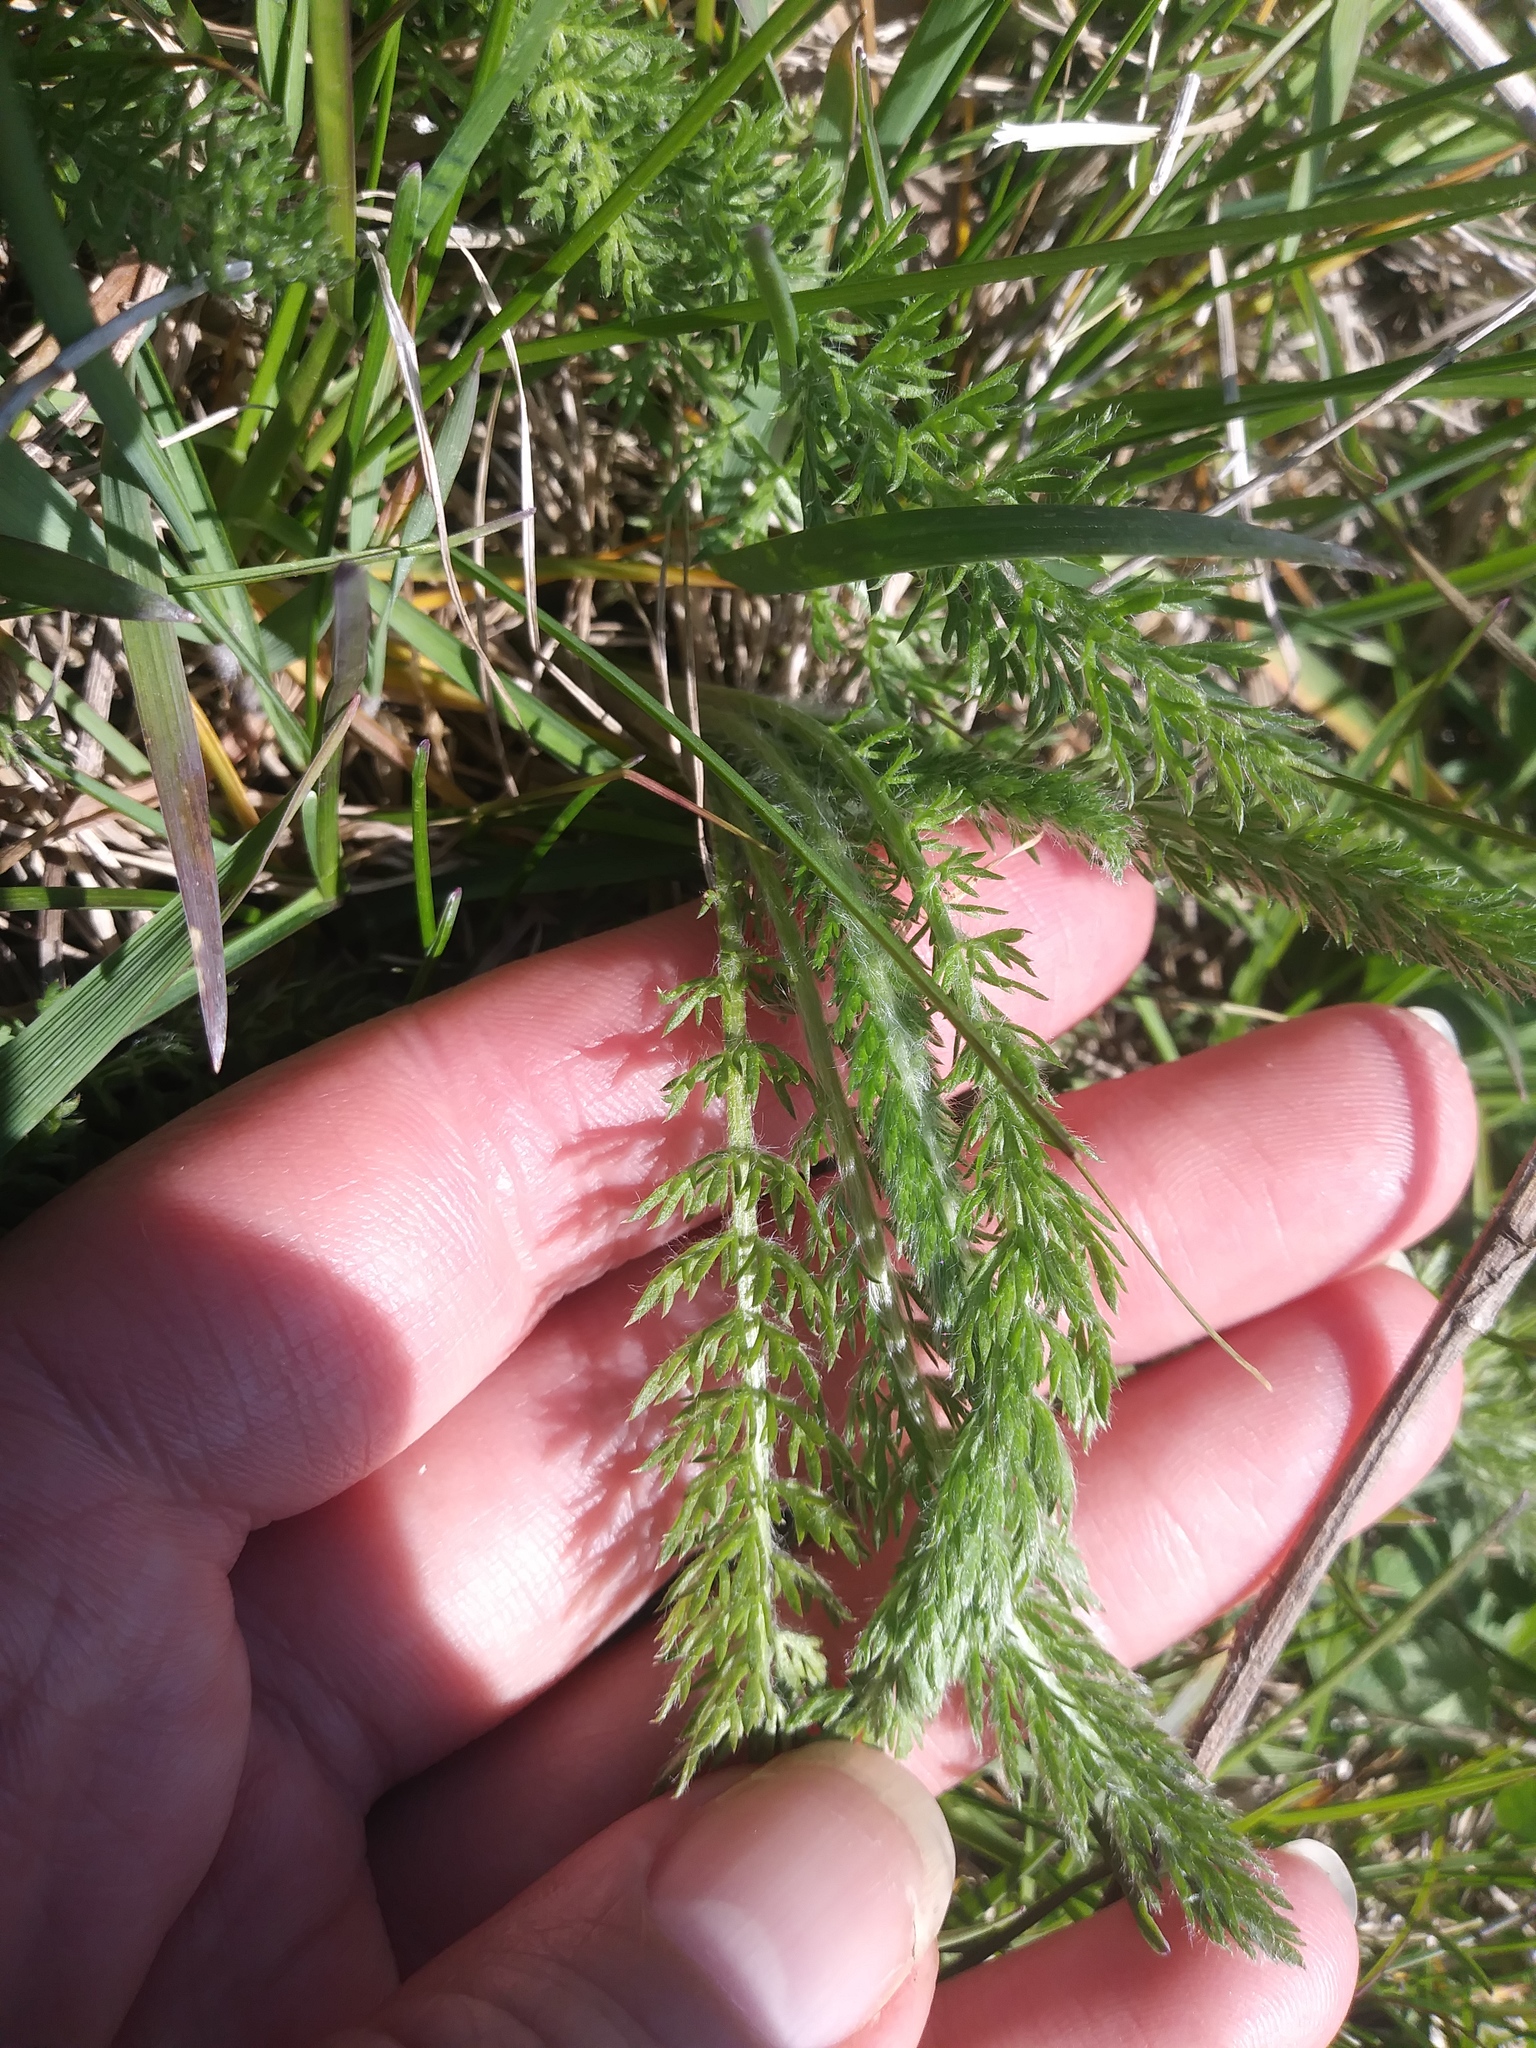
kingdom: Plantae
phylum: Tracheophyta
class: Magnoliopsida
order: Asterales
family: Asteraceae
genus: Achillea
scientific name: Achillea millefolium
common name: Yarrow
